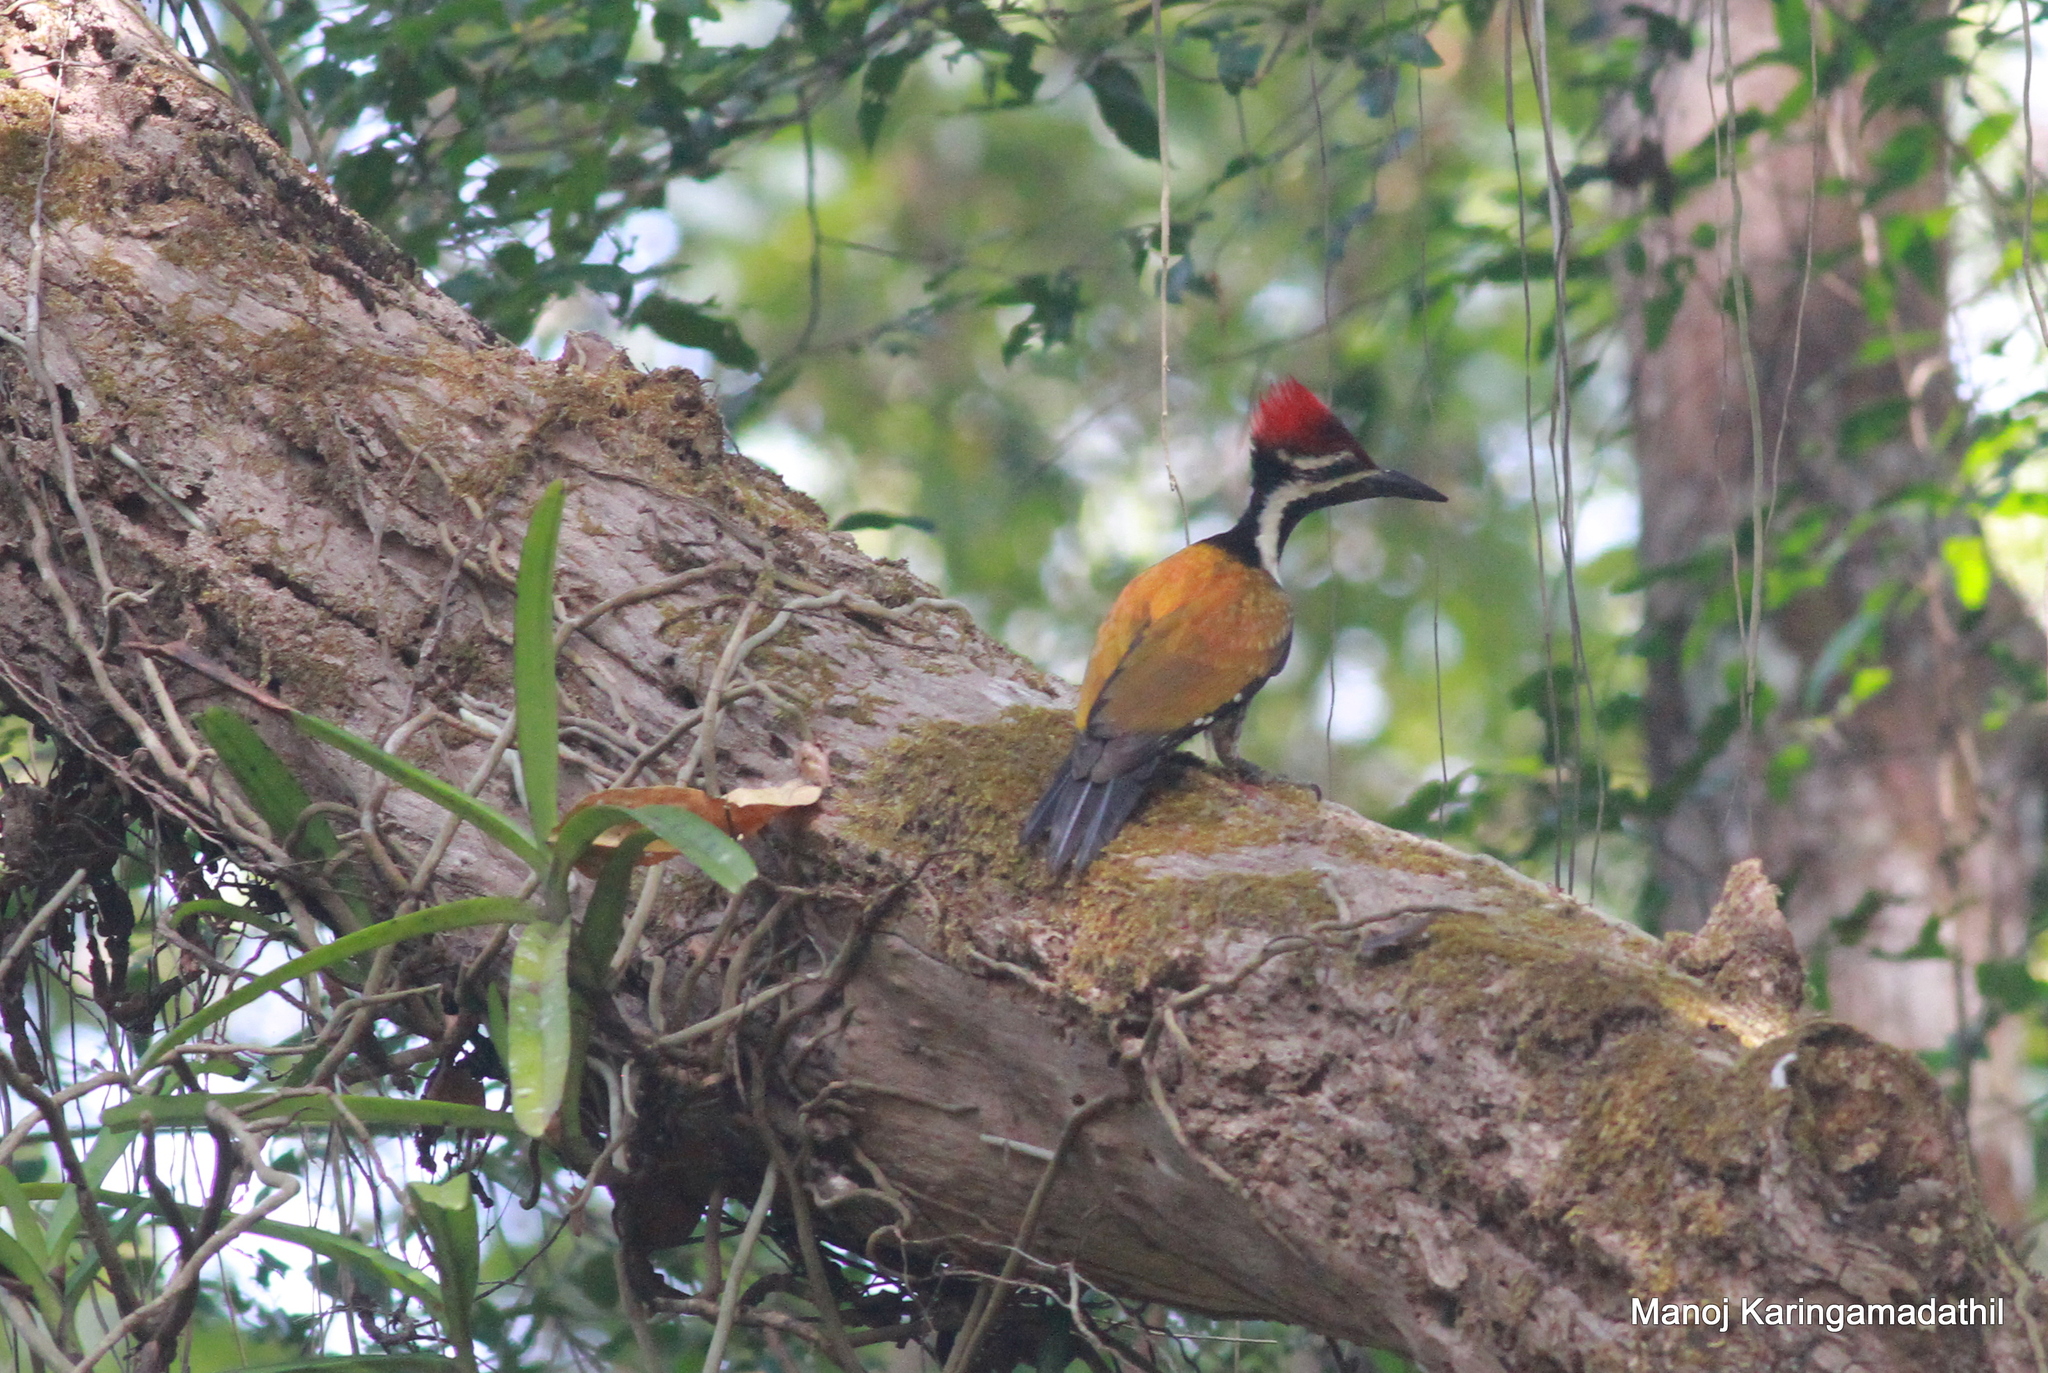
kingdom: Animalia
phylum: Chordata
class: Aves
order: Piciformes
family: Picidae
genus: Dinopium
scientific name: Dinopium benghalense
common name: Black-rumped flameback
